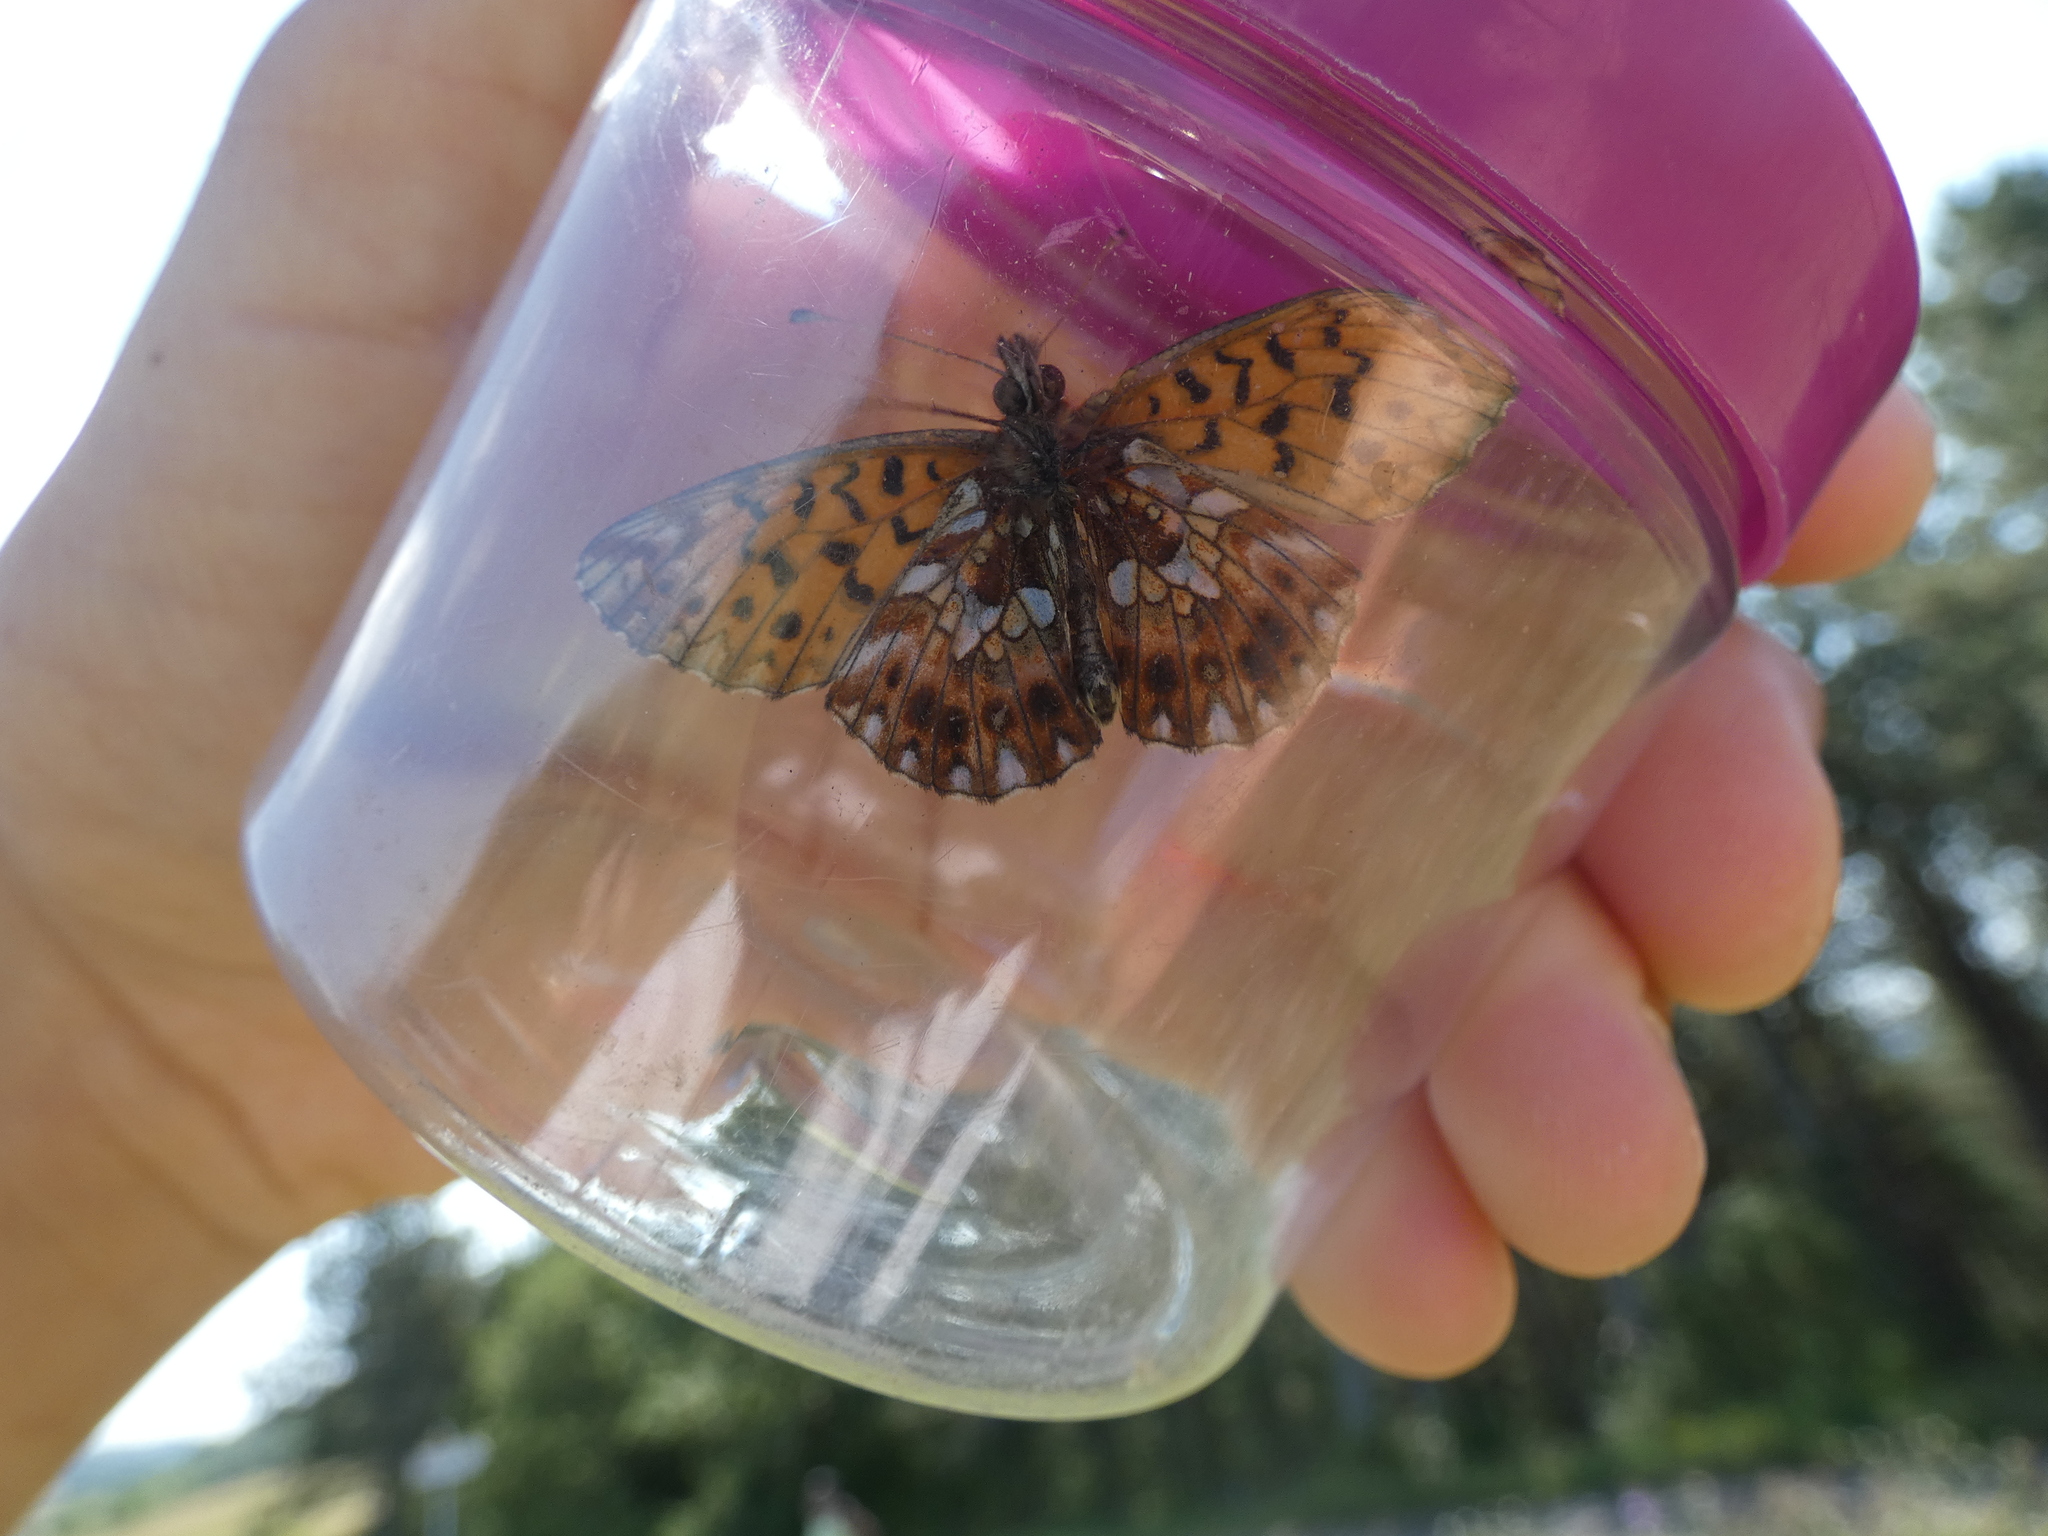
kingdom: Animalia
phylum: Arthropoda
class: Insecta
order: Lepidoptera
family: Nymphalidae
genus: Boloria
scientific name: Boloria dia
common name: Weaver's fritillary
